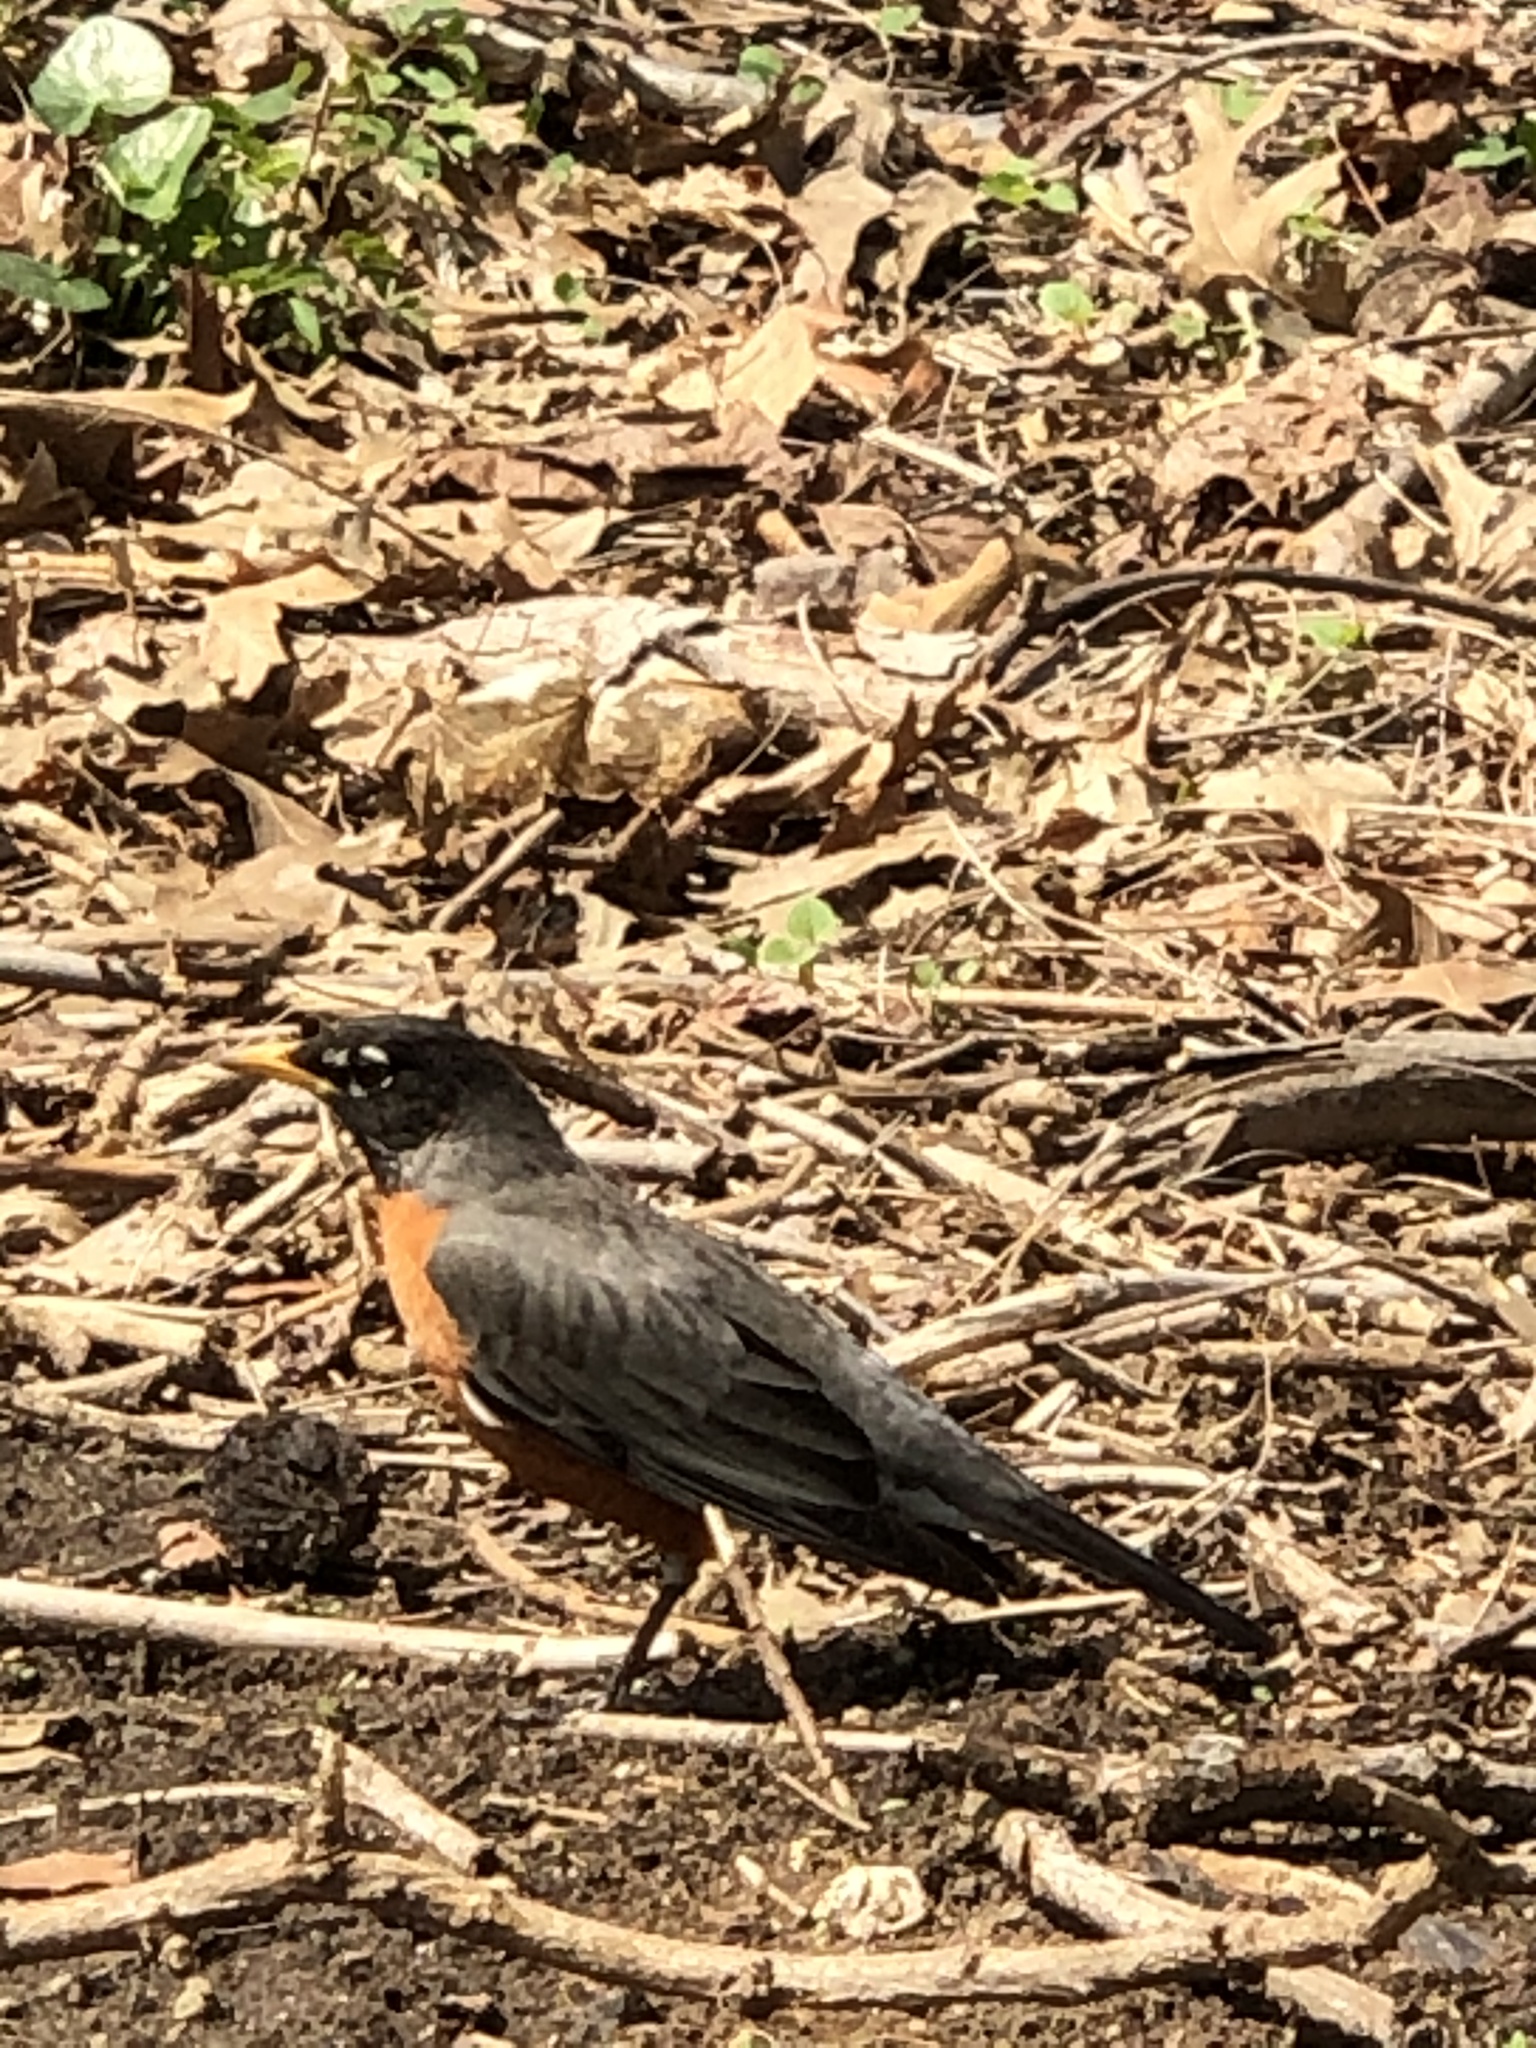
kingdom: Animalia
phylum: Chordata
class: Aves
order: Passeriformes
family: Turdidae
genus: Turdus
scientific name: Turdus migratorius
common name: American robin
